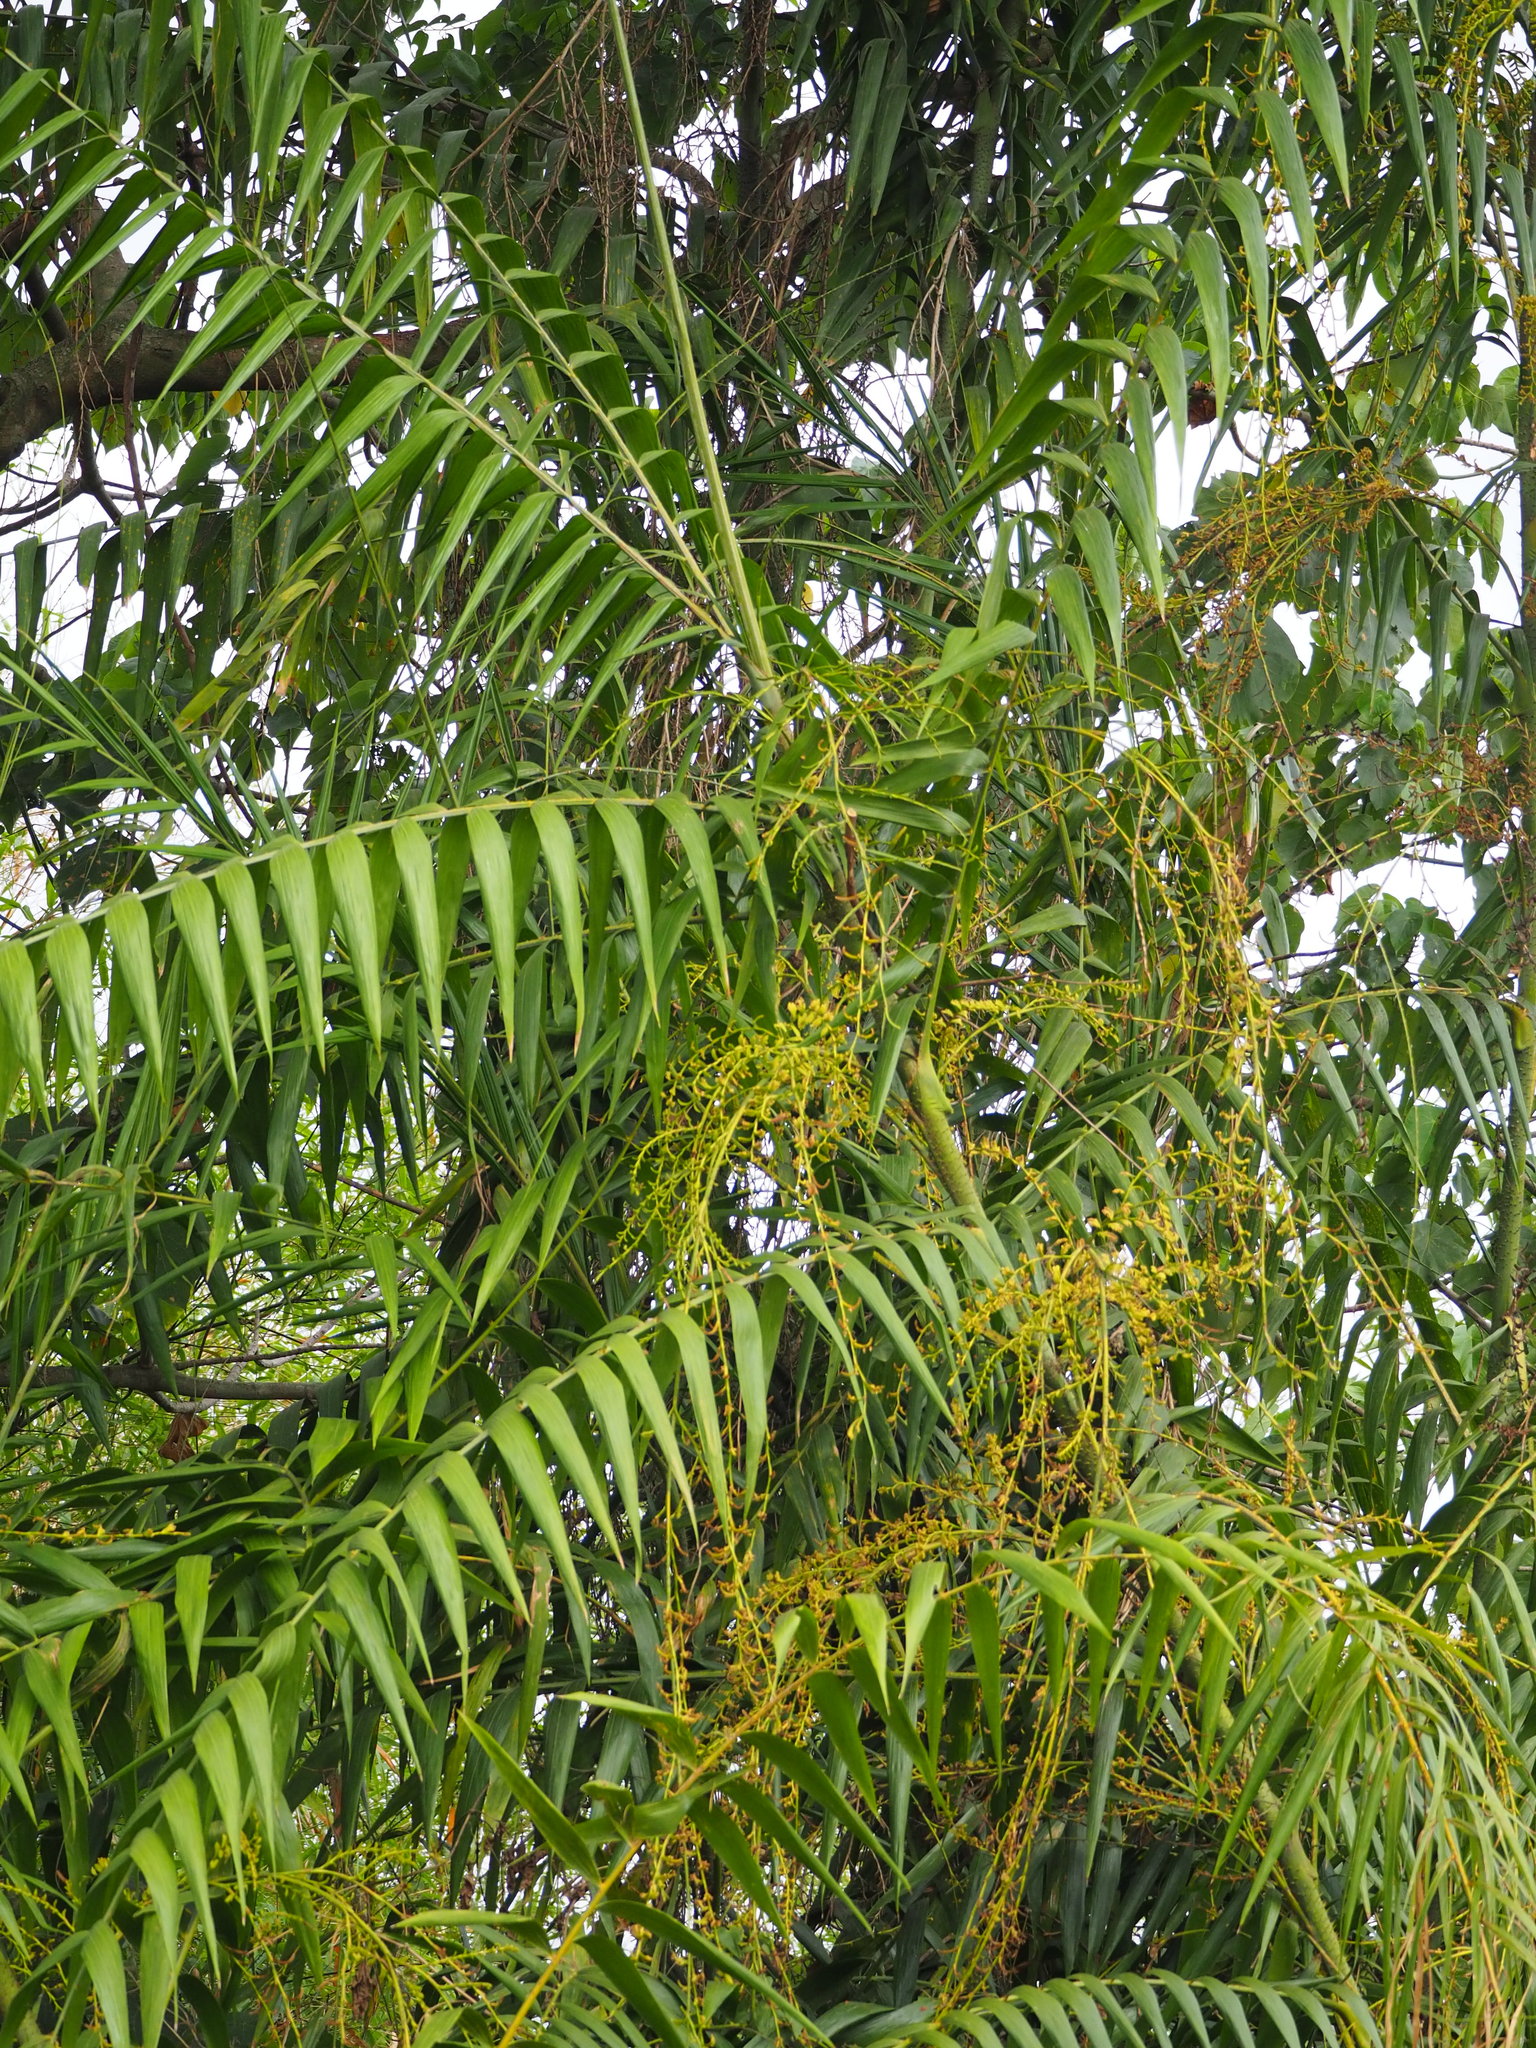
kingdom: Plantae
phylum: Tracheophyta
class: Liliopsida
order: Arecales
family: Arecaceae
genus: Calamus
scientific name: Calamus formosanus
